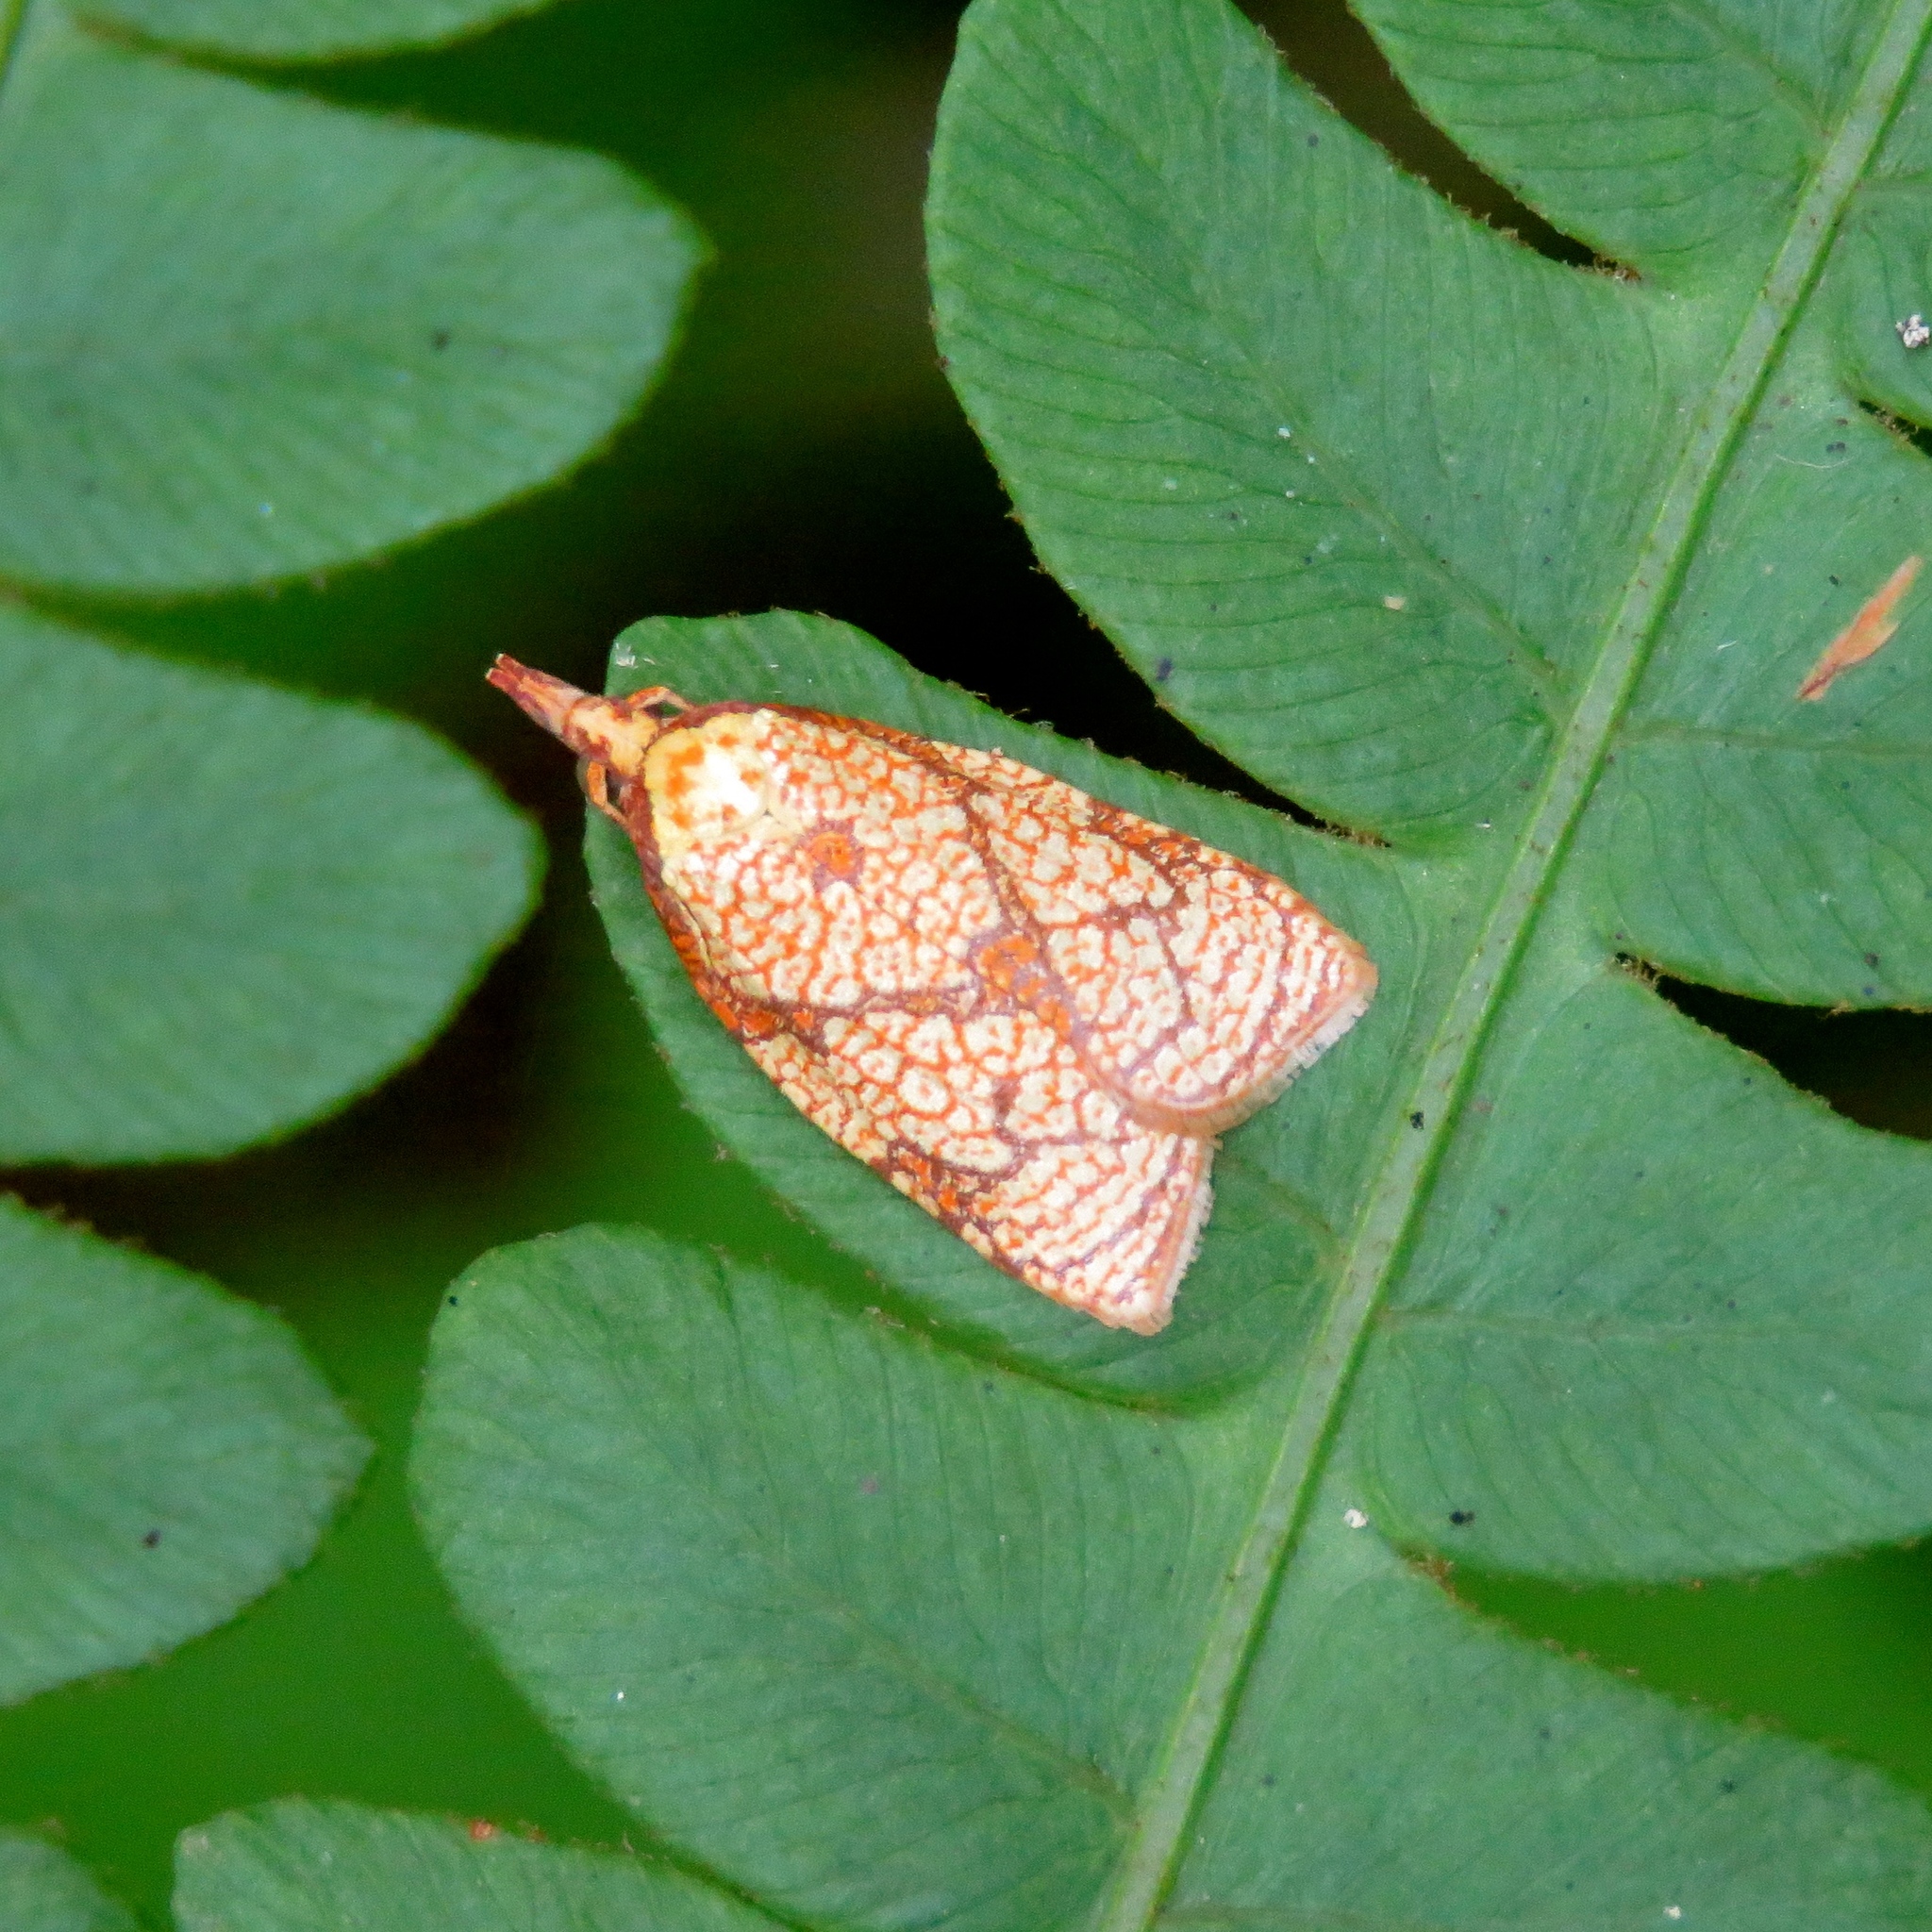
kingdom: Animalia
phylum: Arthropoda
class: Insecta
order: Lepidoptera
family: Tortricidae
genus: Cenopis
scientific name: Cenopis reticulatana
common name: Reticulated fruitworm moth
